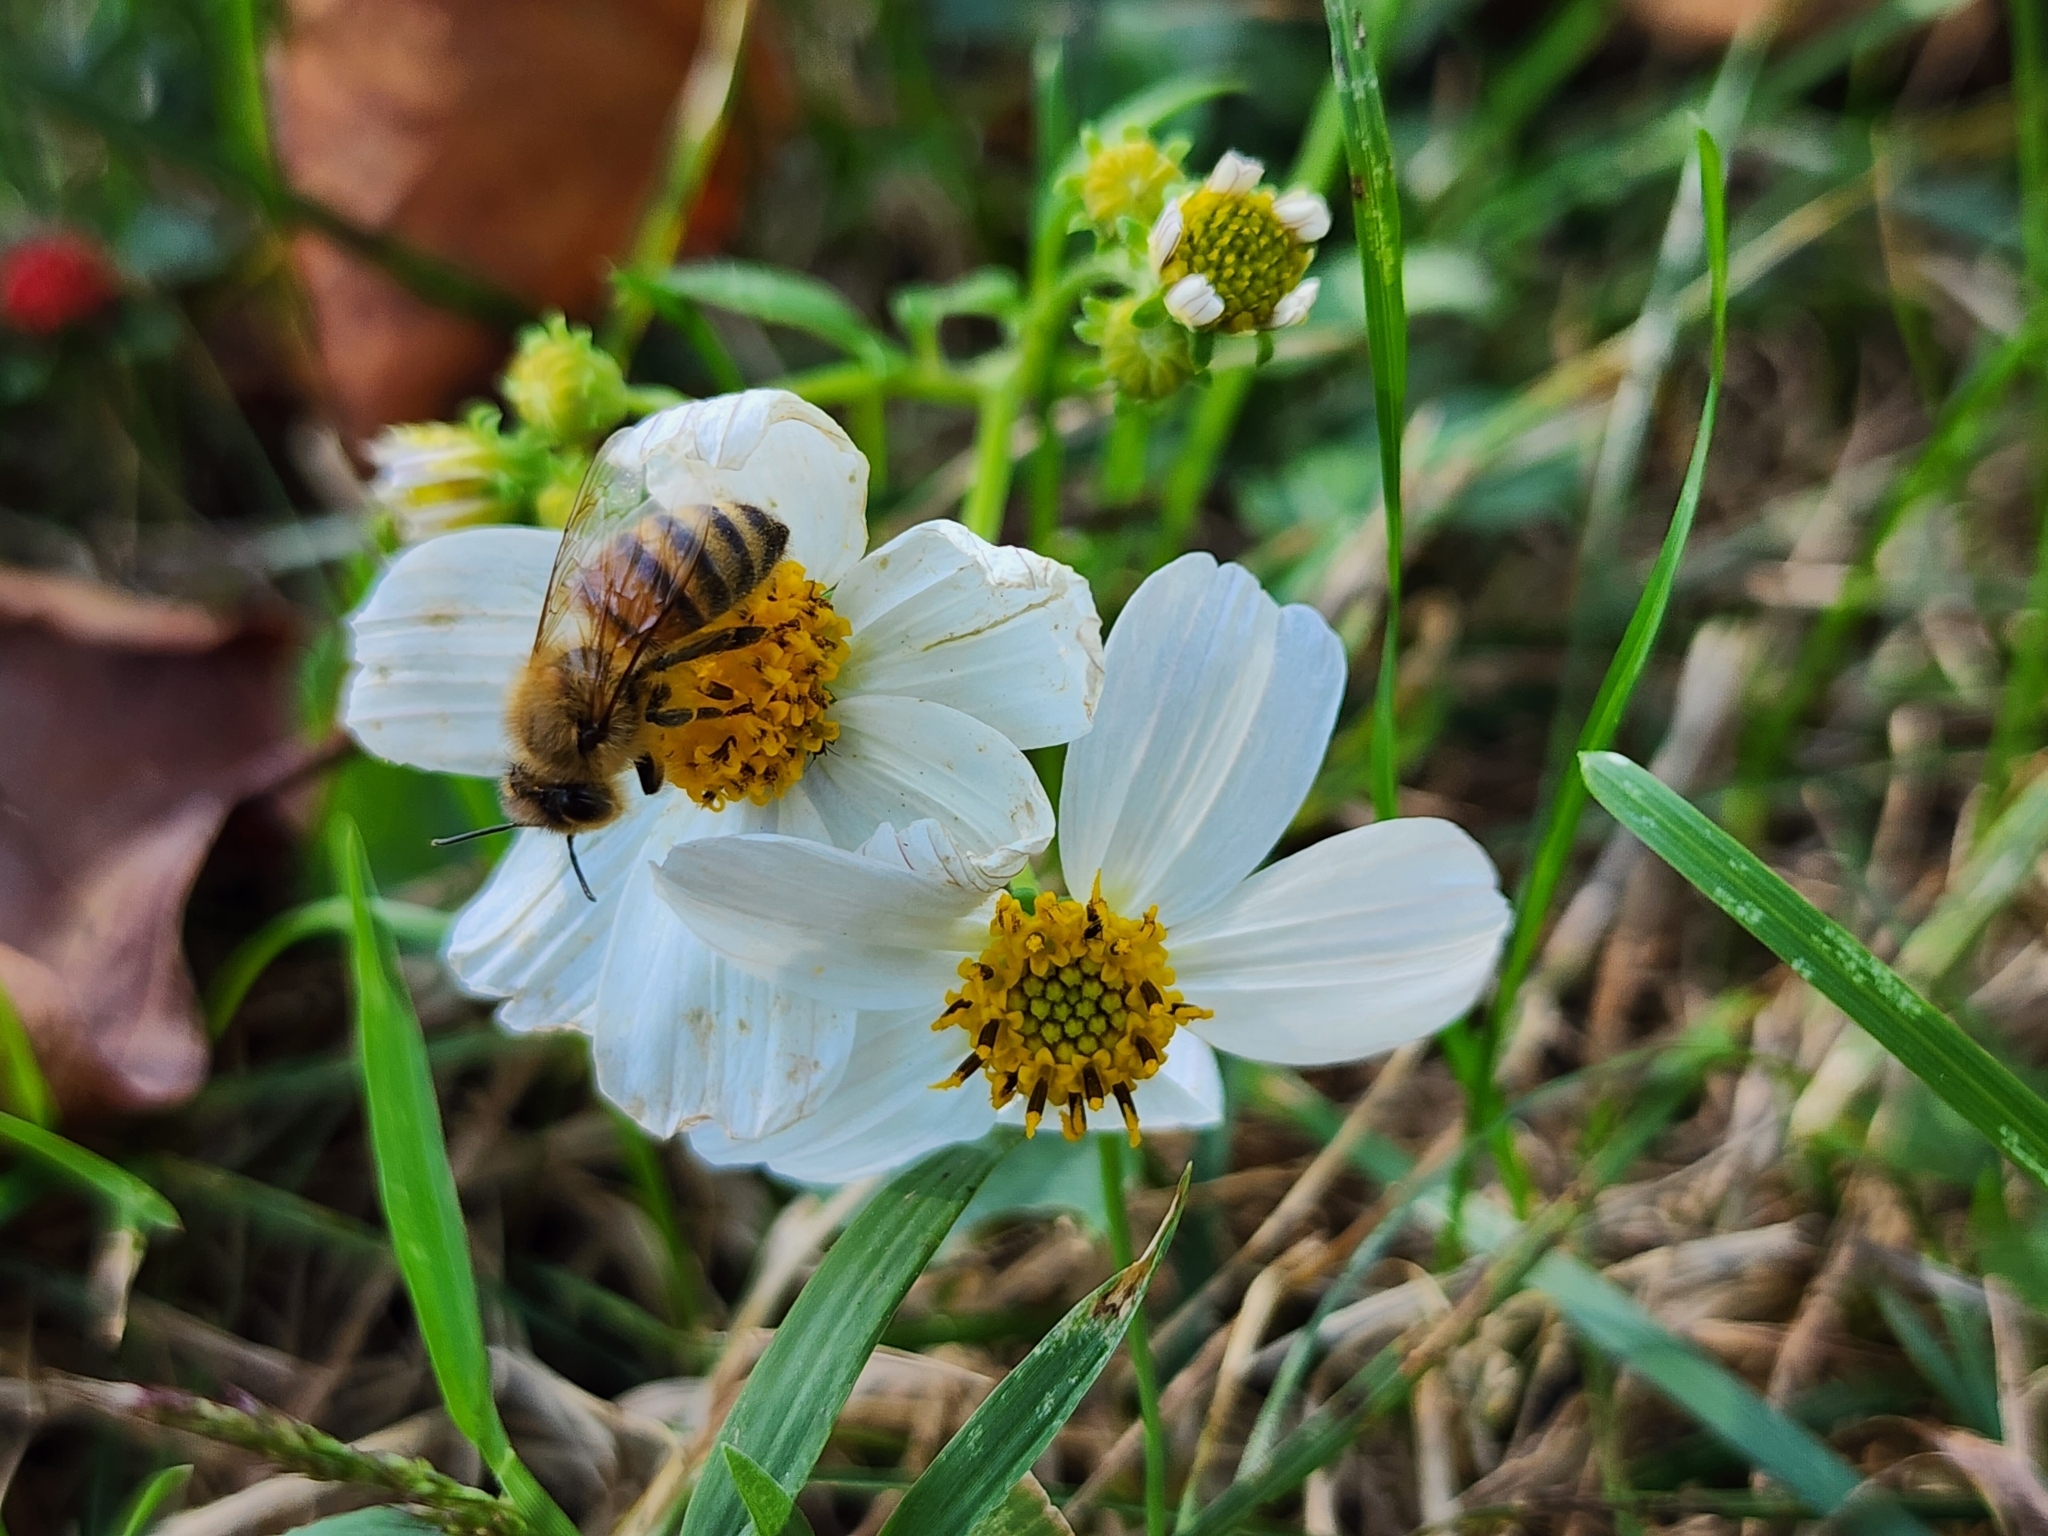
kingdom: Animalia
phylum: Arthropoda
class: Insecta
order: Hymenoptera
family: Apidae
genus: Apis
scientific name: Apis mellifera
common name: Honey bee
